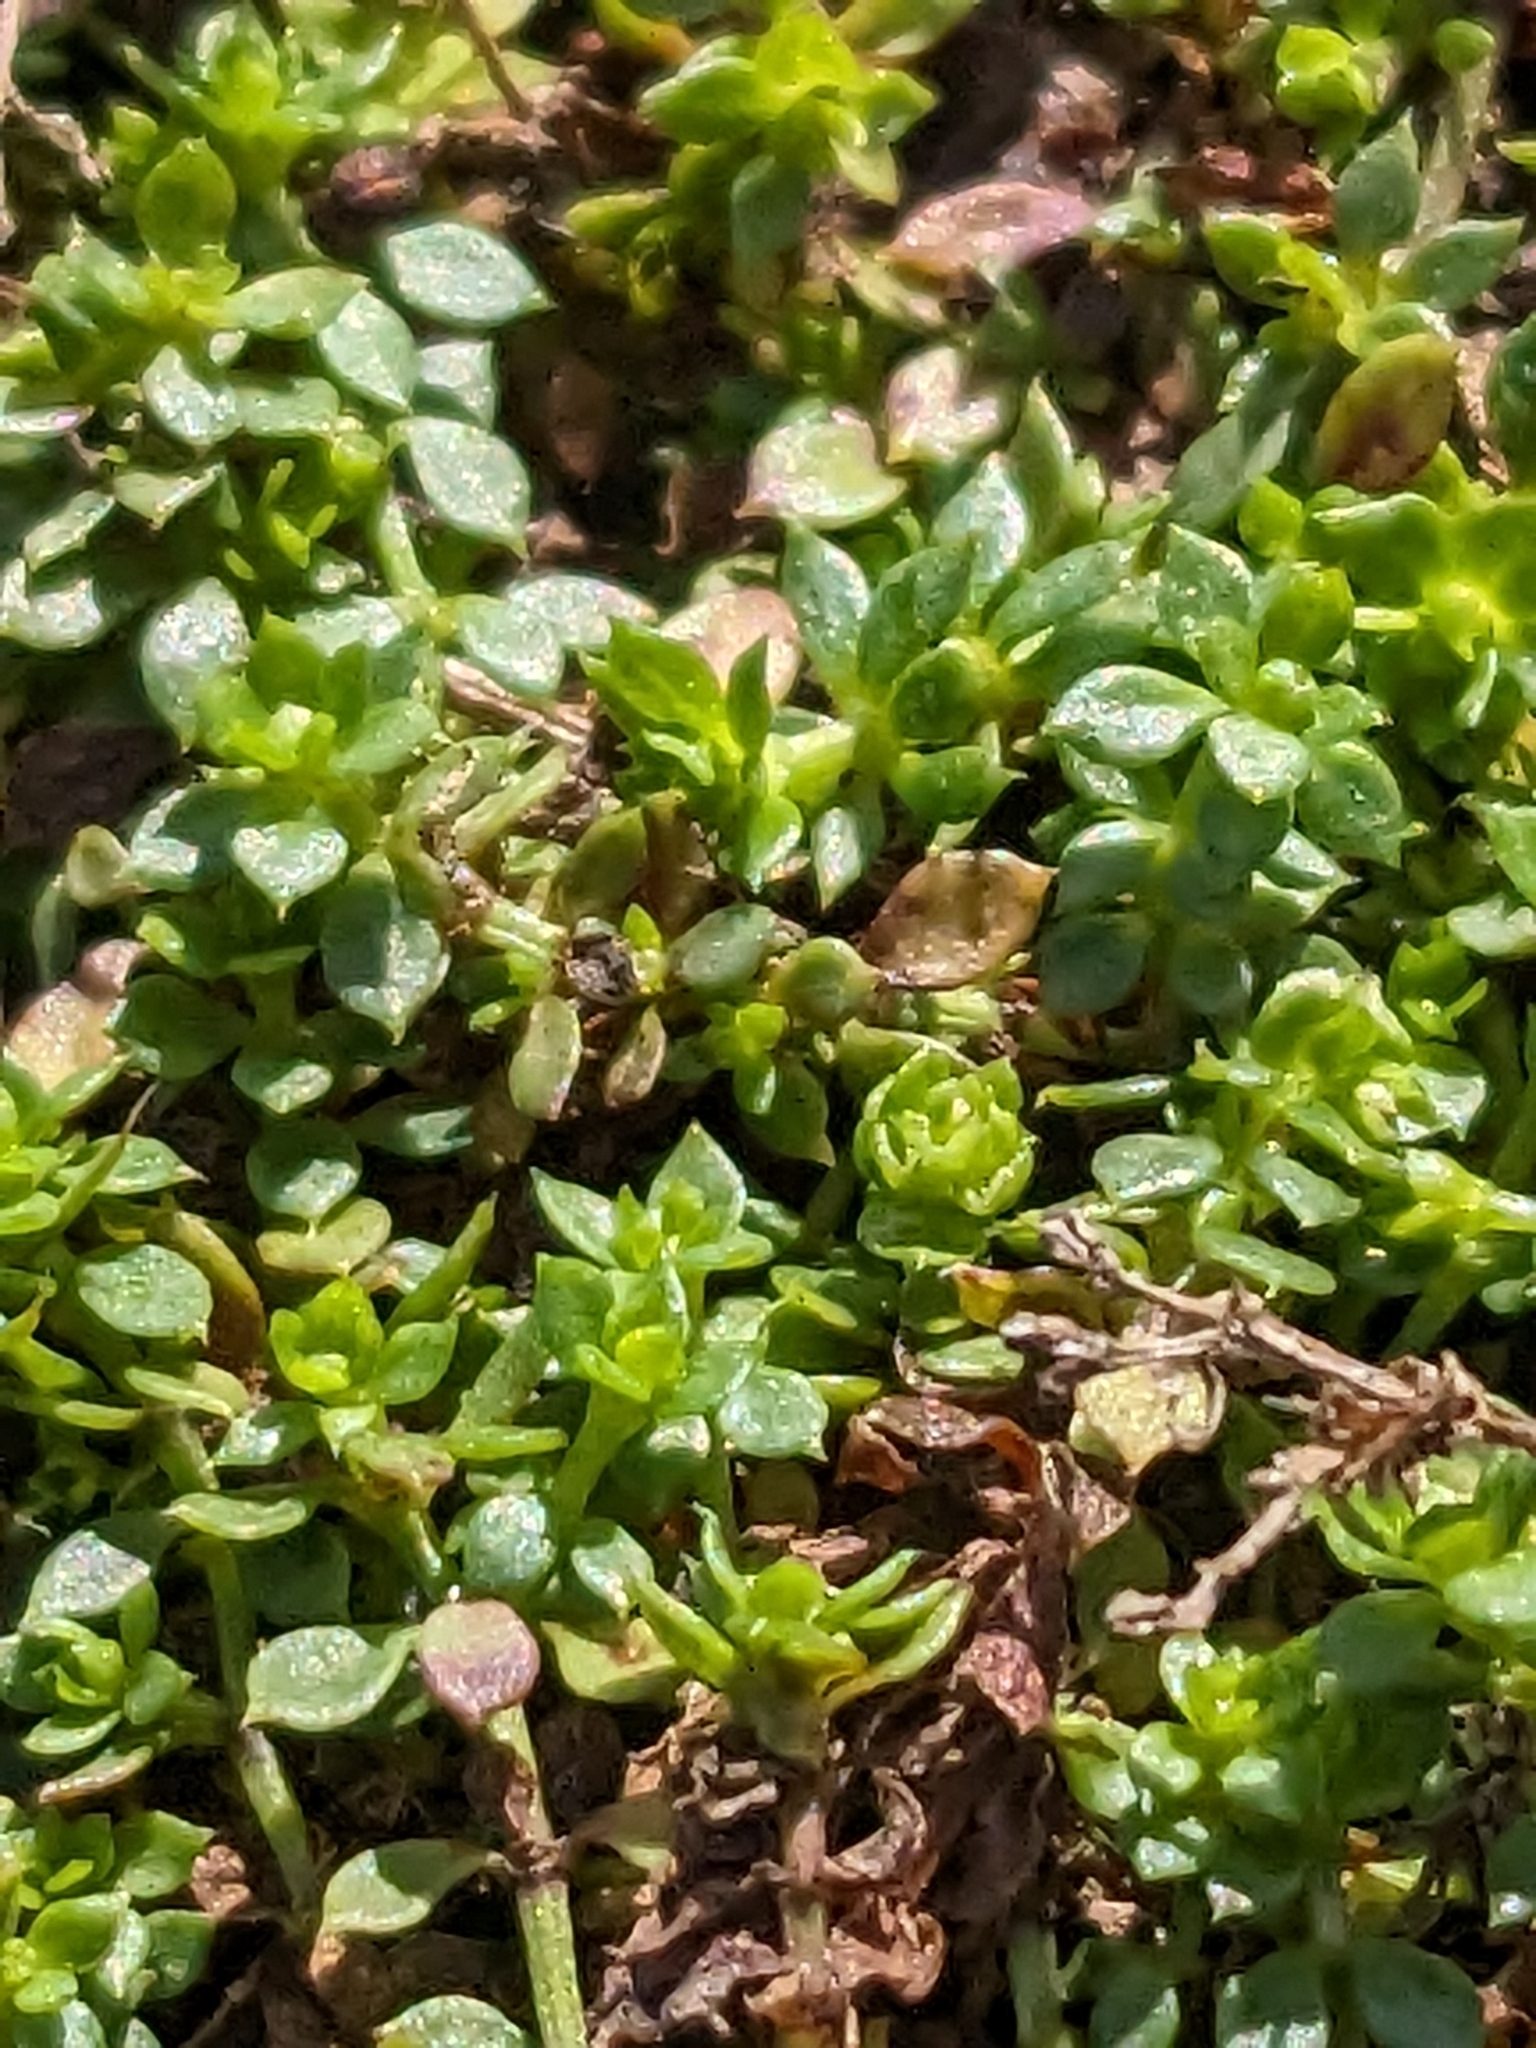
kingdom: Plantae
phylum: Tracheophyta
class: Magnoliopsida
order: Gentianales
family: Rubiaceae
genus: Galium
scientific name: Galium saxatile
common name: Heath bedstraw
